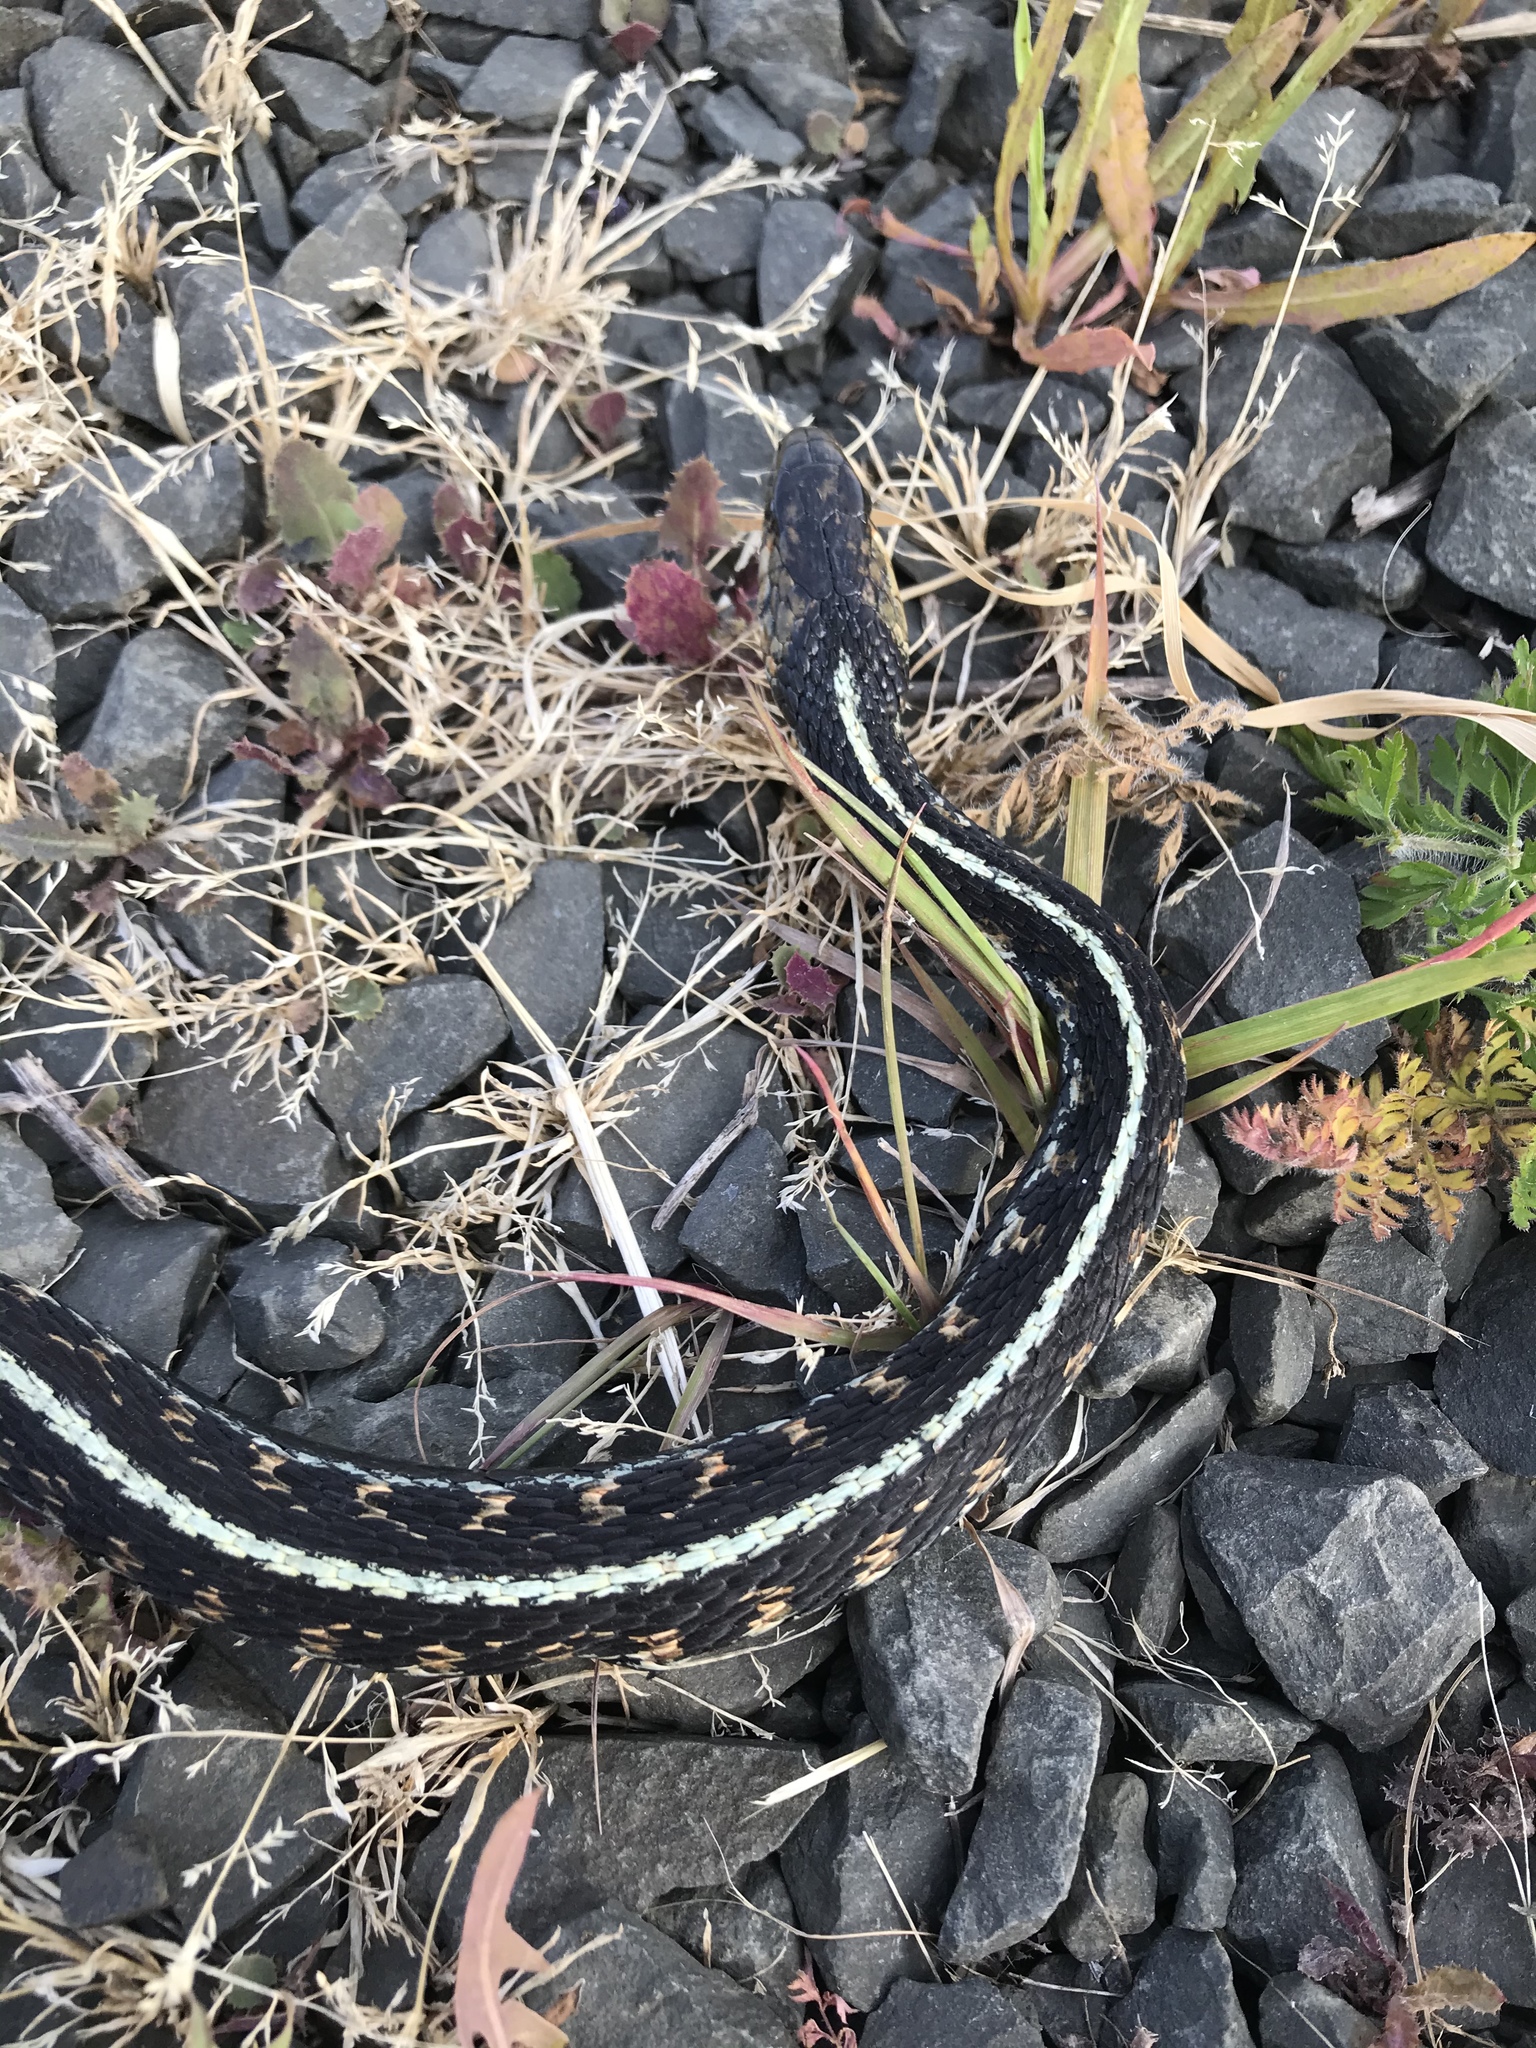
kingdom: Animalia
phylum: Chordata
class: Squamata
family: Colubridae
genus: Thamnophis
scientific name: Thamnophis sirtalis
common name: Common garter snake
